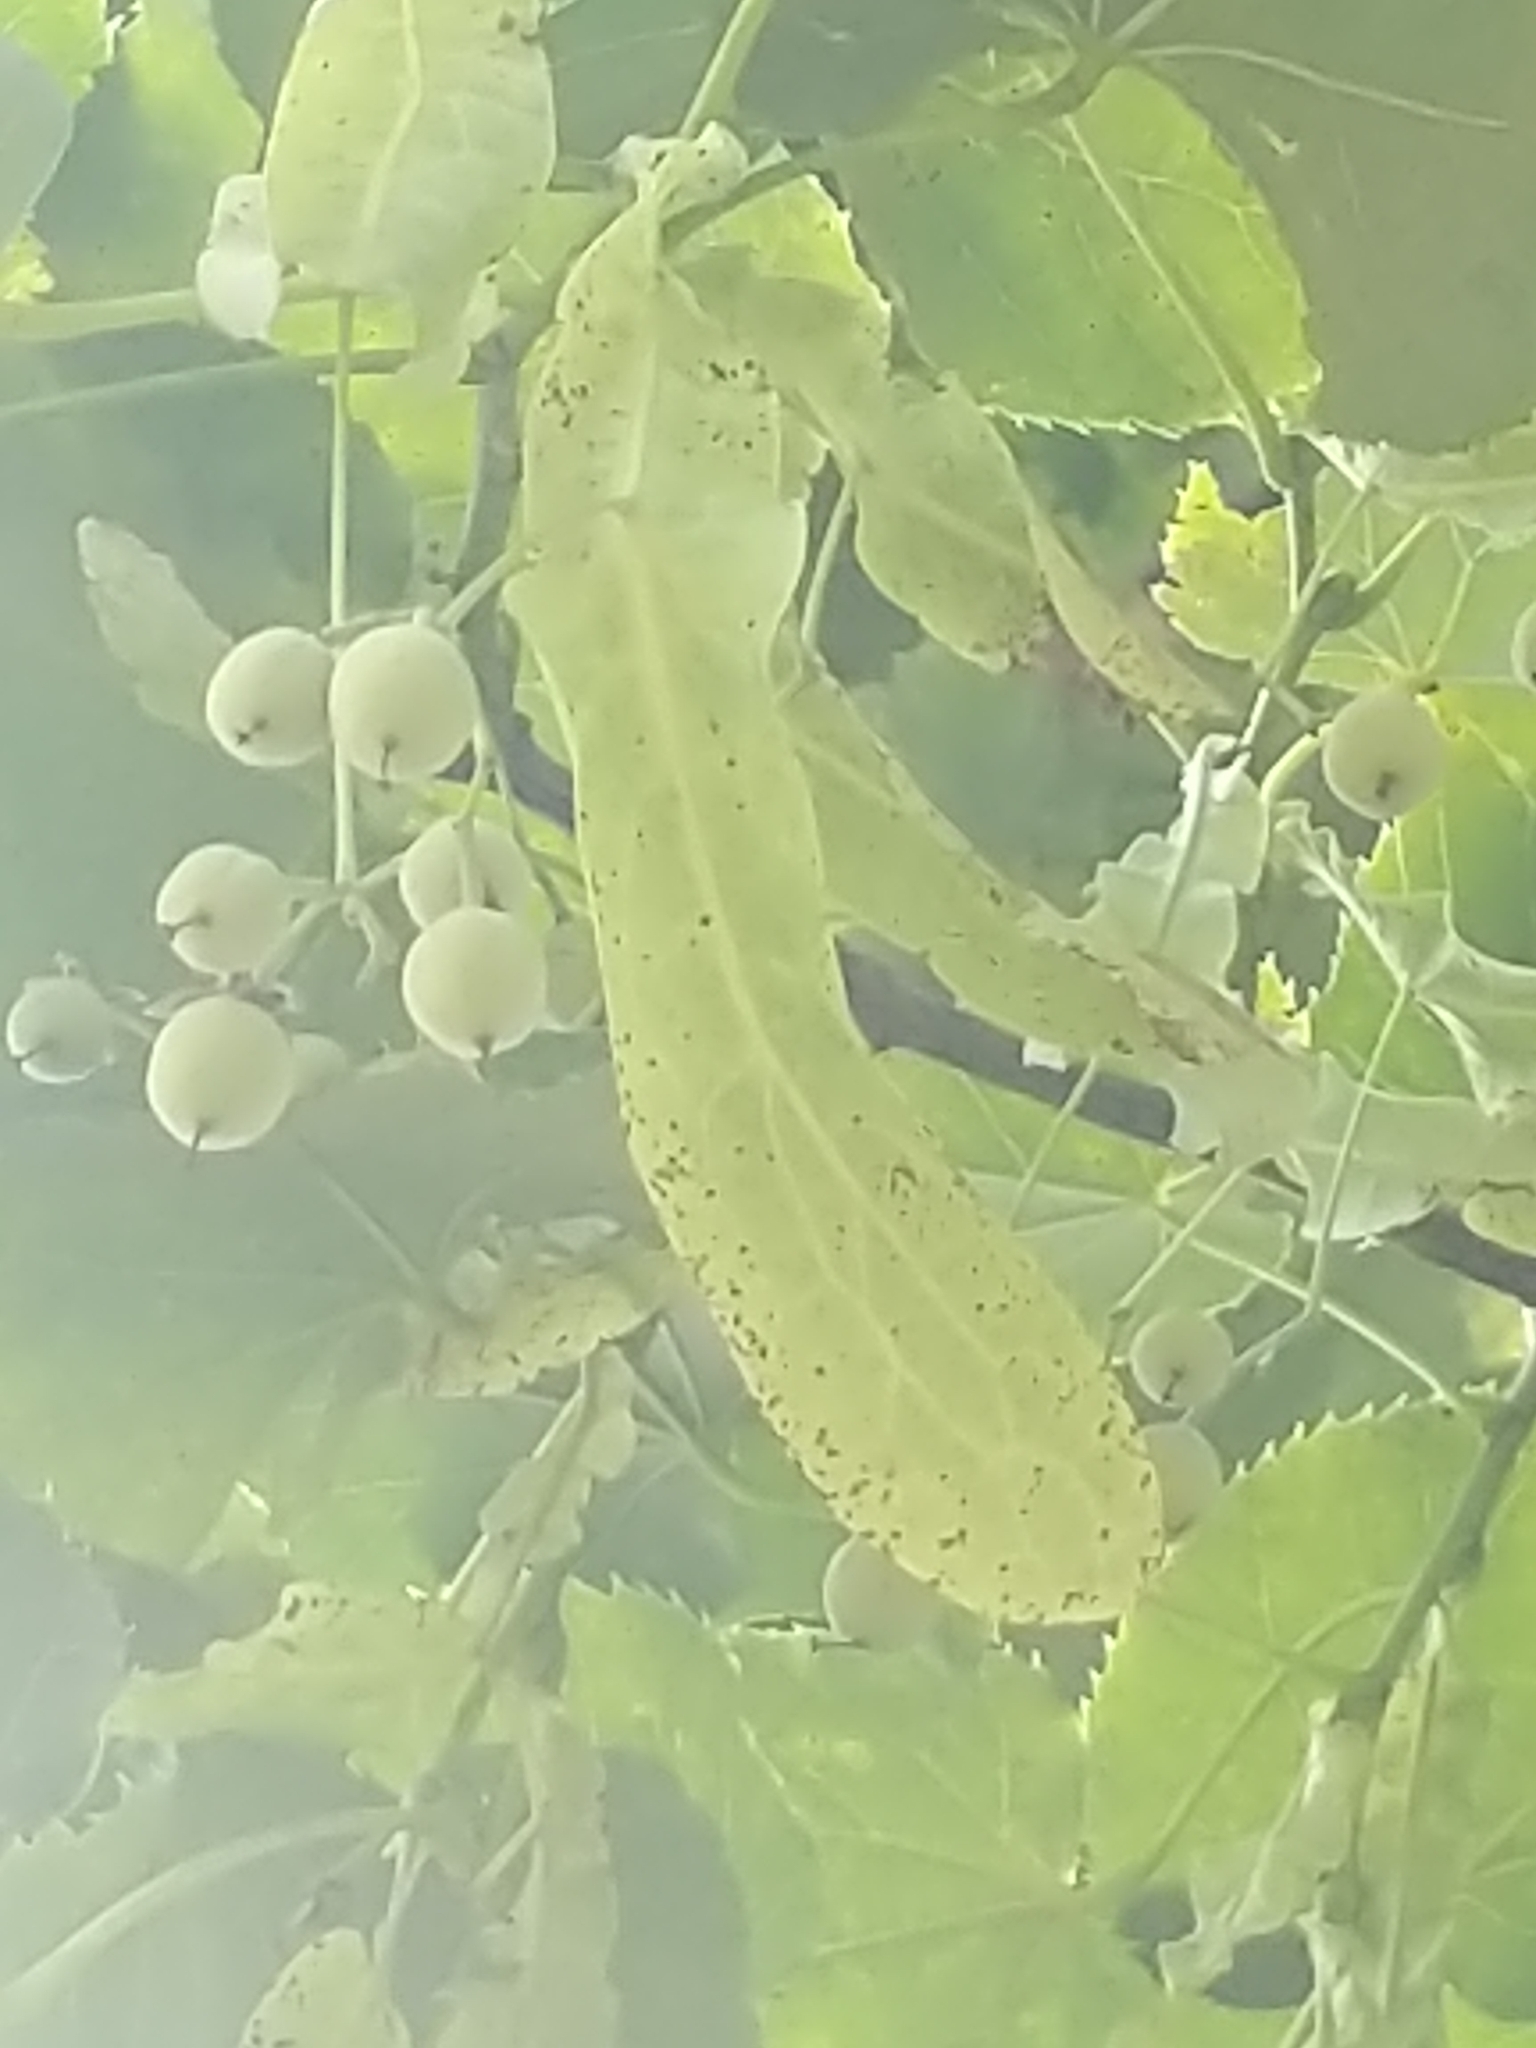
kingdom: Plantae
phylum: Tracheophyta
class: Magnoliopsida
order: Malvales
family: Malvaceae
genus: Tilia
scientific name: Tilia americana
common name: Basswood
